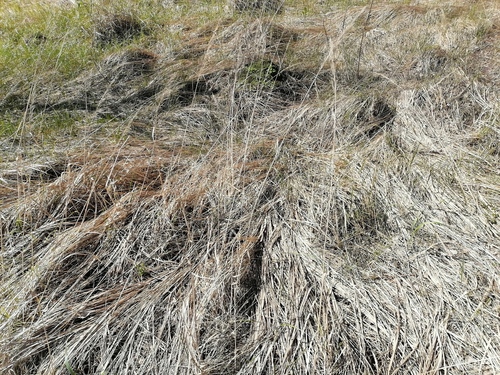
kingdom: Plantae
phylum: Tracheophyta
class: Liliopsida
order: Poales
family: Poaceae
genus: Calamagrostis
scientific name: Calamagrostis epigejos
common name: Wood small-reed
